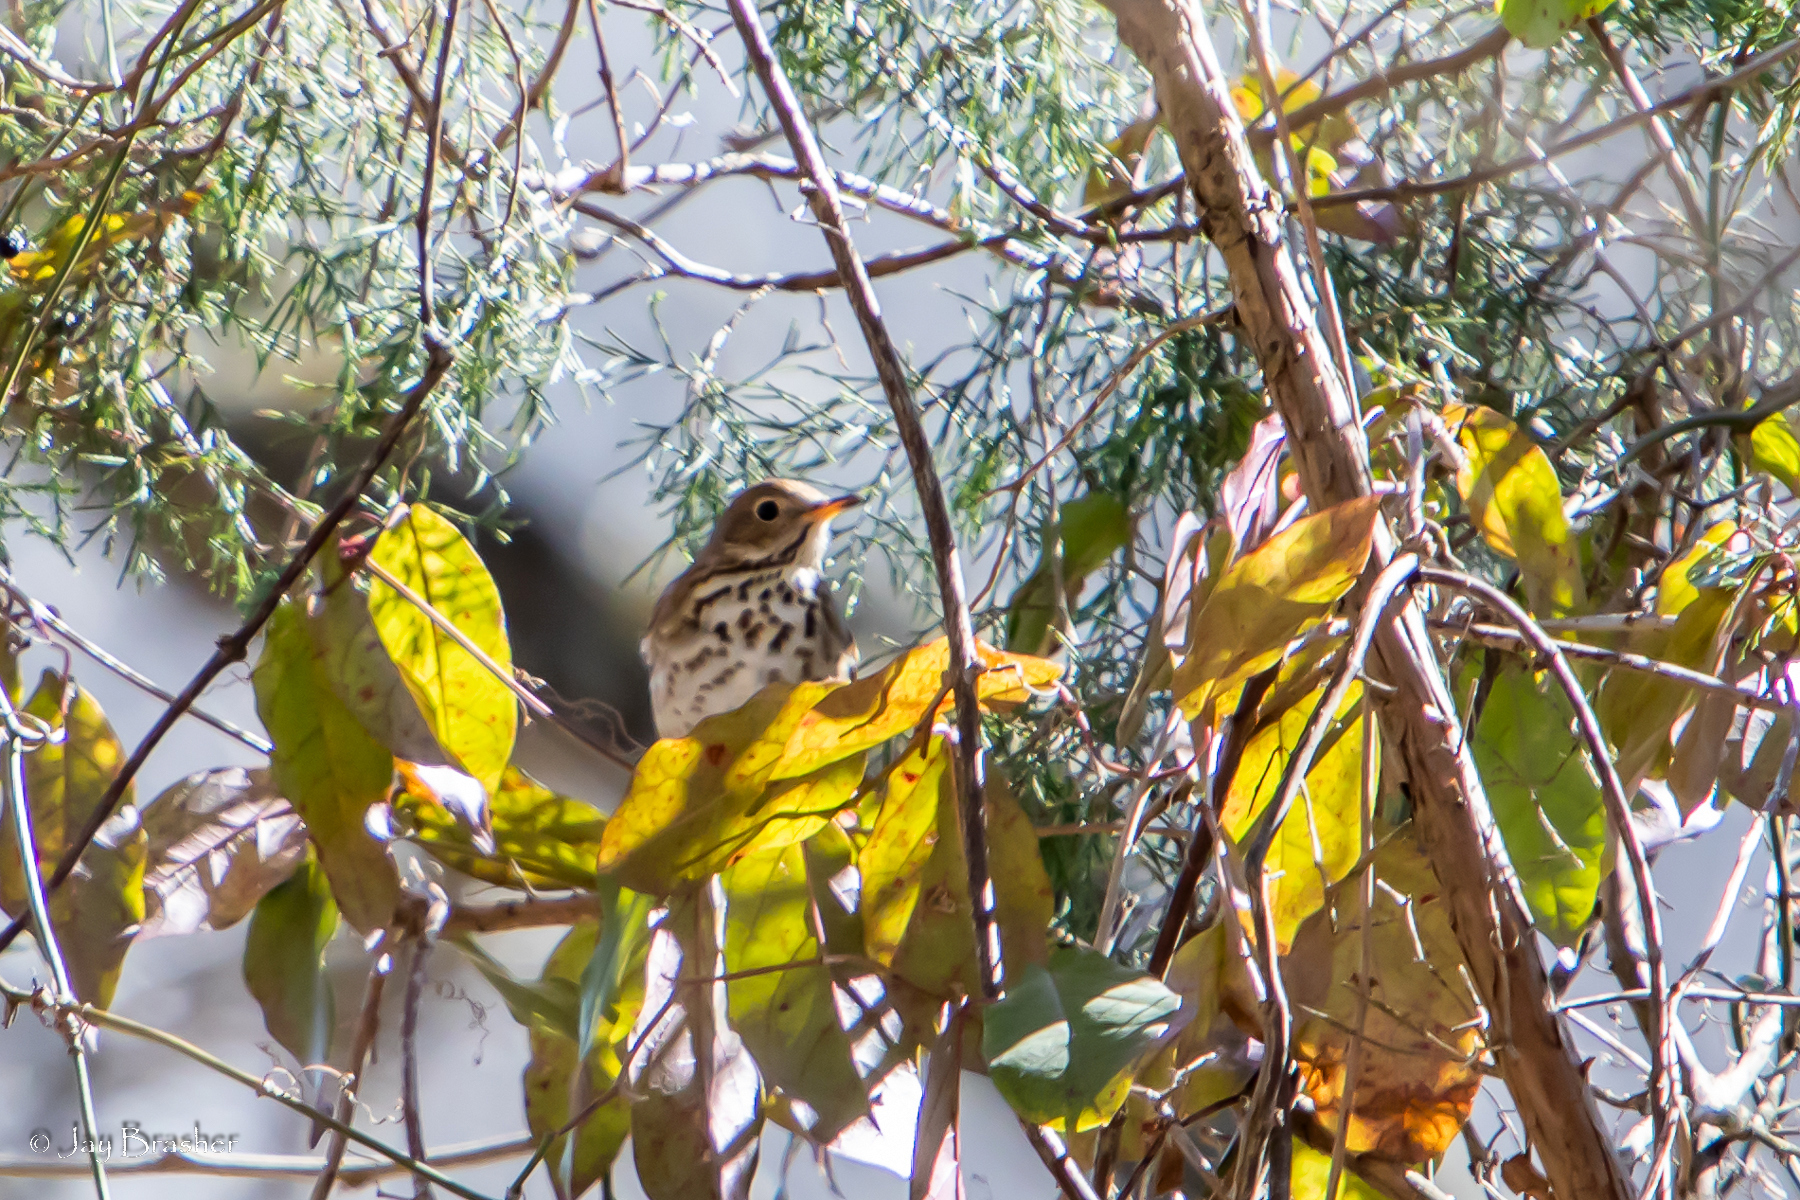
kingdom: Animalia
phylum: Chordata
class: Aves
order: Passeriformes
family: Turdidae
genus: Catharus
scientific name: Catharus guttatus
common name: Hermit thrush
